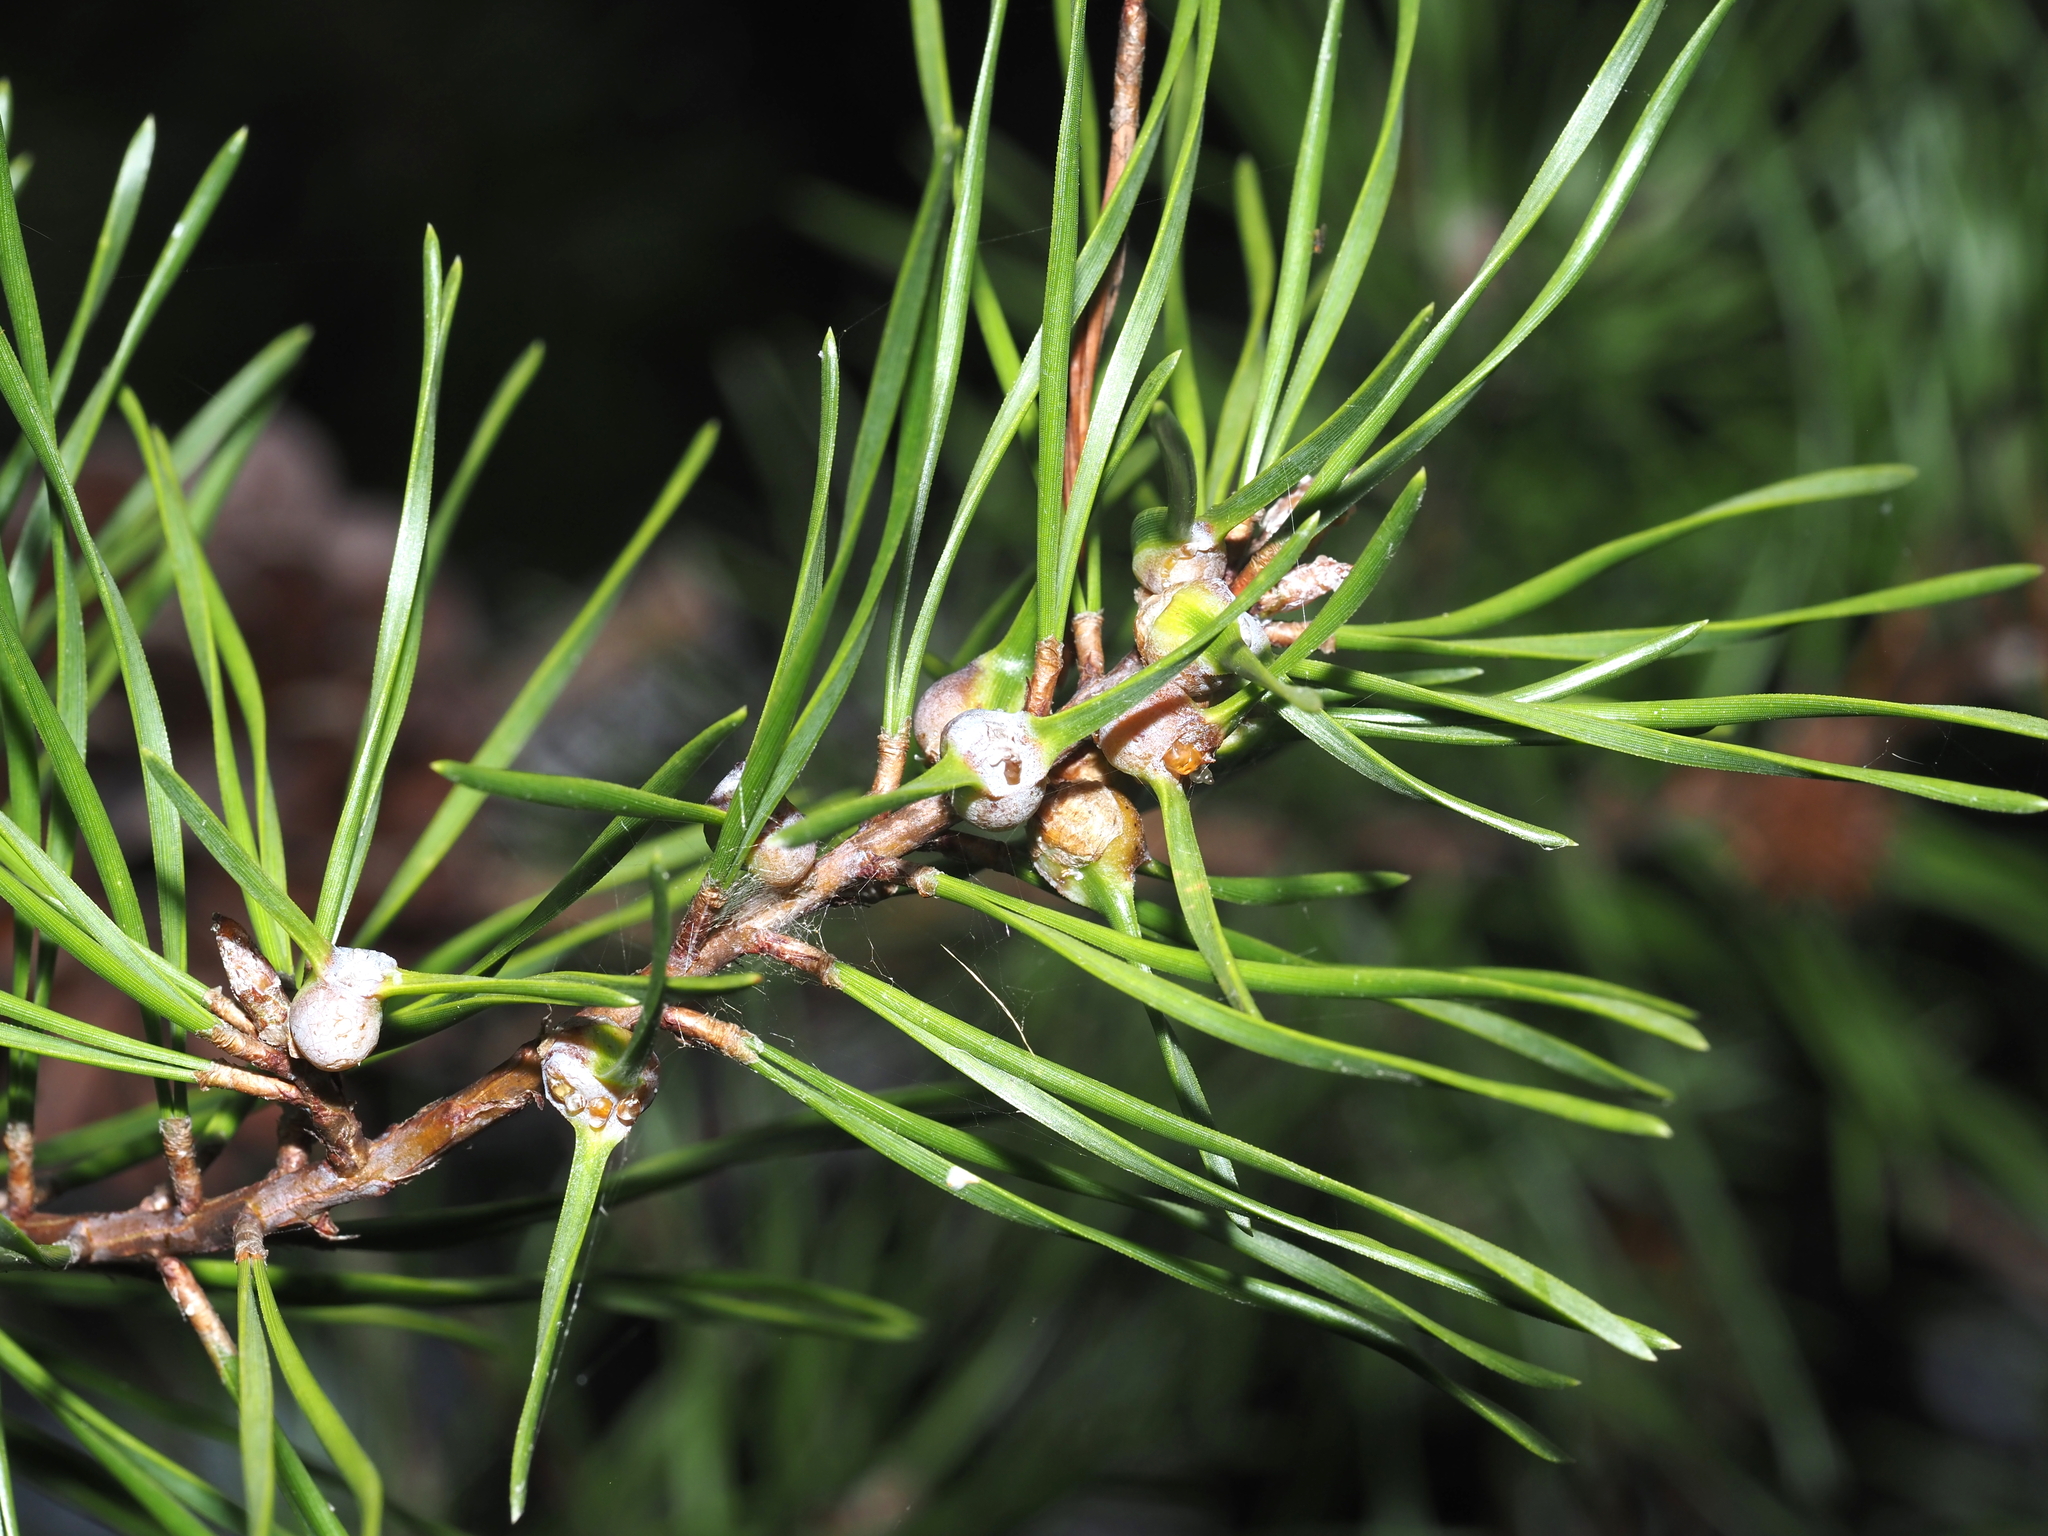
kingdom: Animalia
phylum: Arthropoda
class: Insecta
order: Diptera
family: Cecidomyiidae
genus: Thecodiplosis
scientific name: Thecodiplosis brachynteroides
